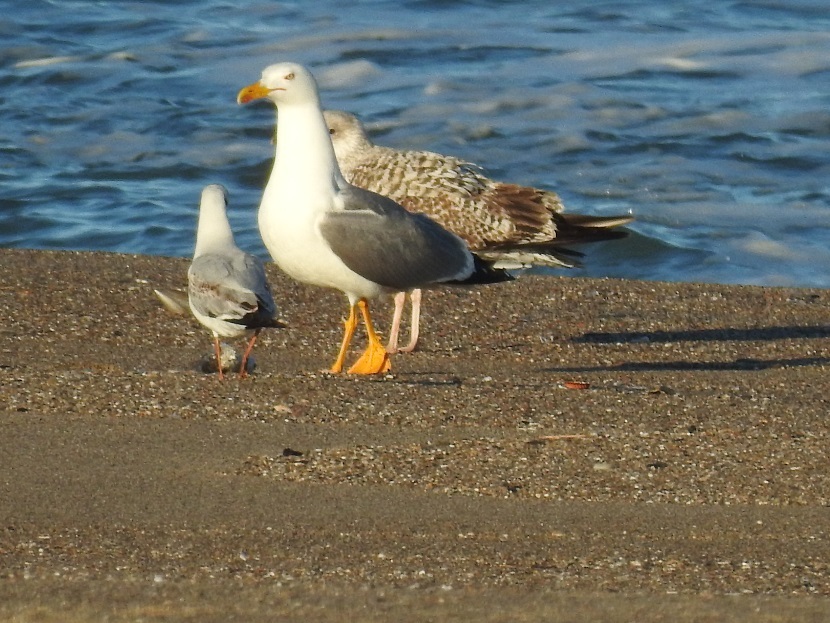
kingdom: Animalia
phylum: Chordata
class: Aves
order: Charadriiformes
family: Laridae
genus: Larus
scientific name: Larus michahellis
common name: Yellow-legged gull
